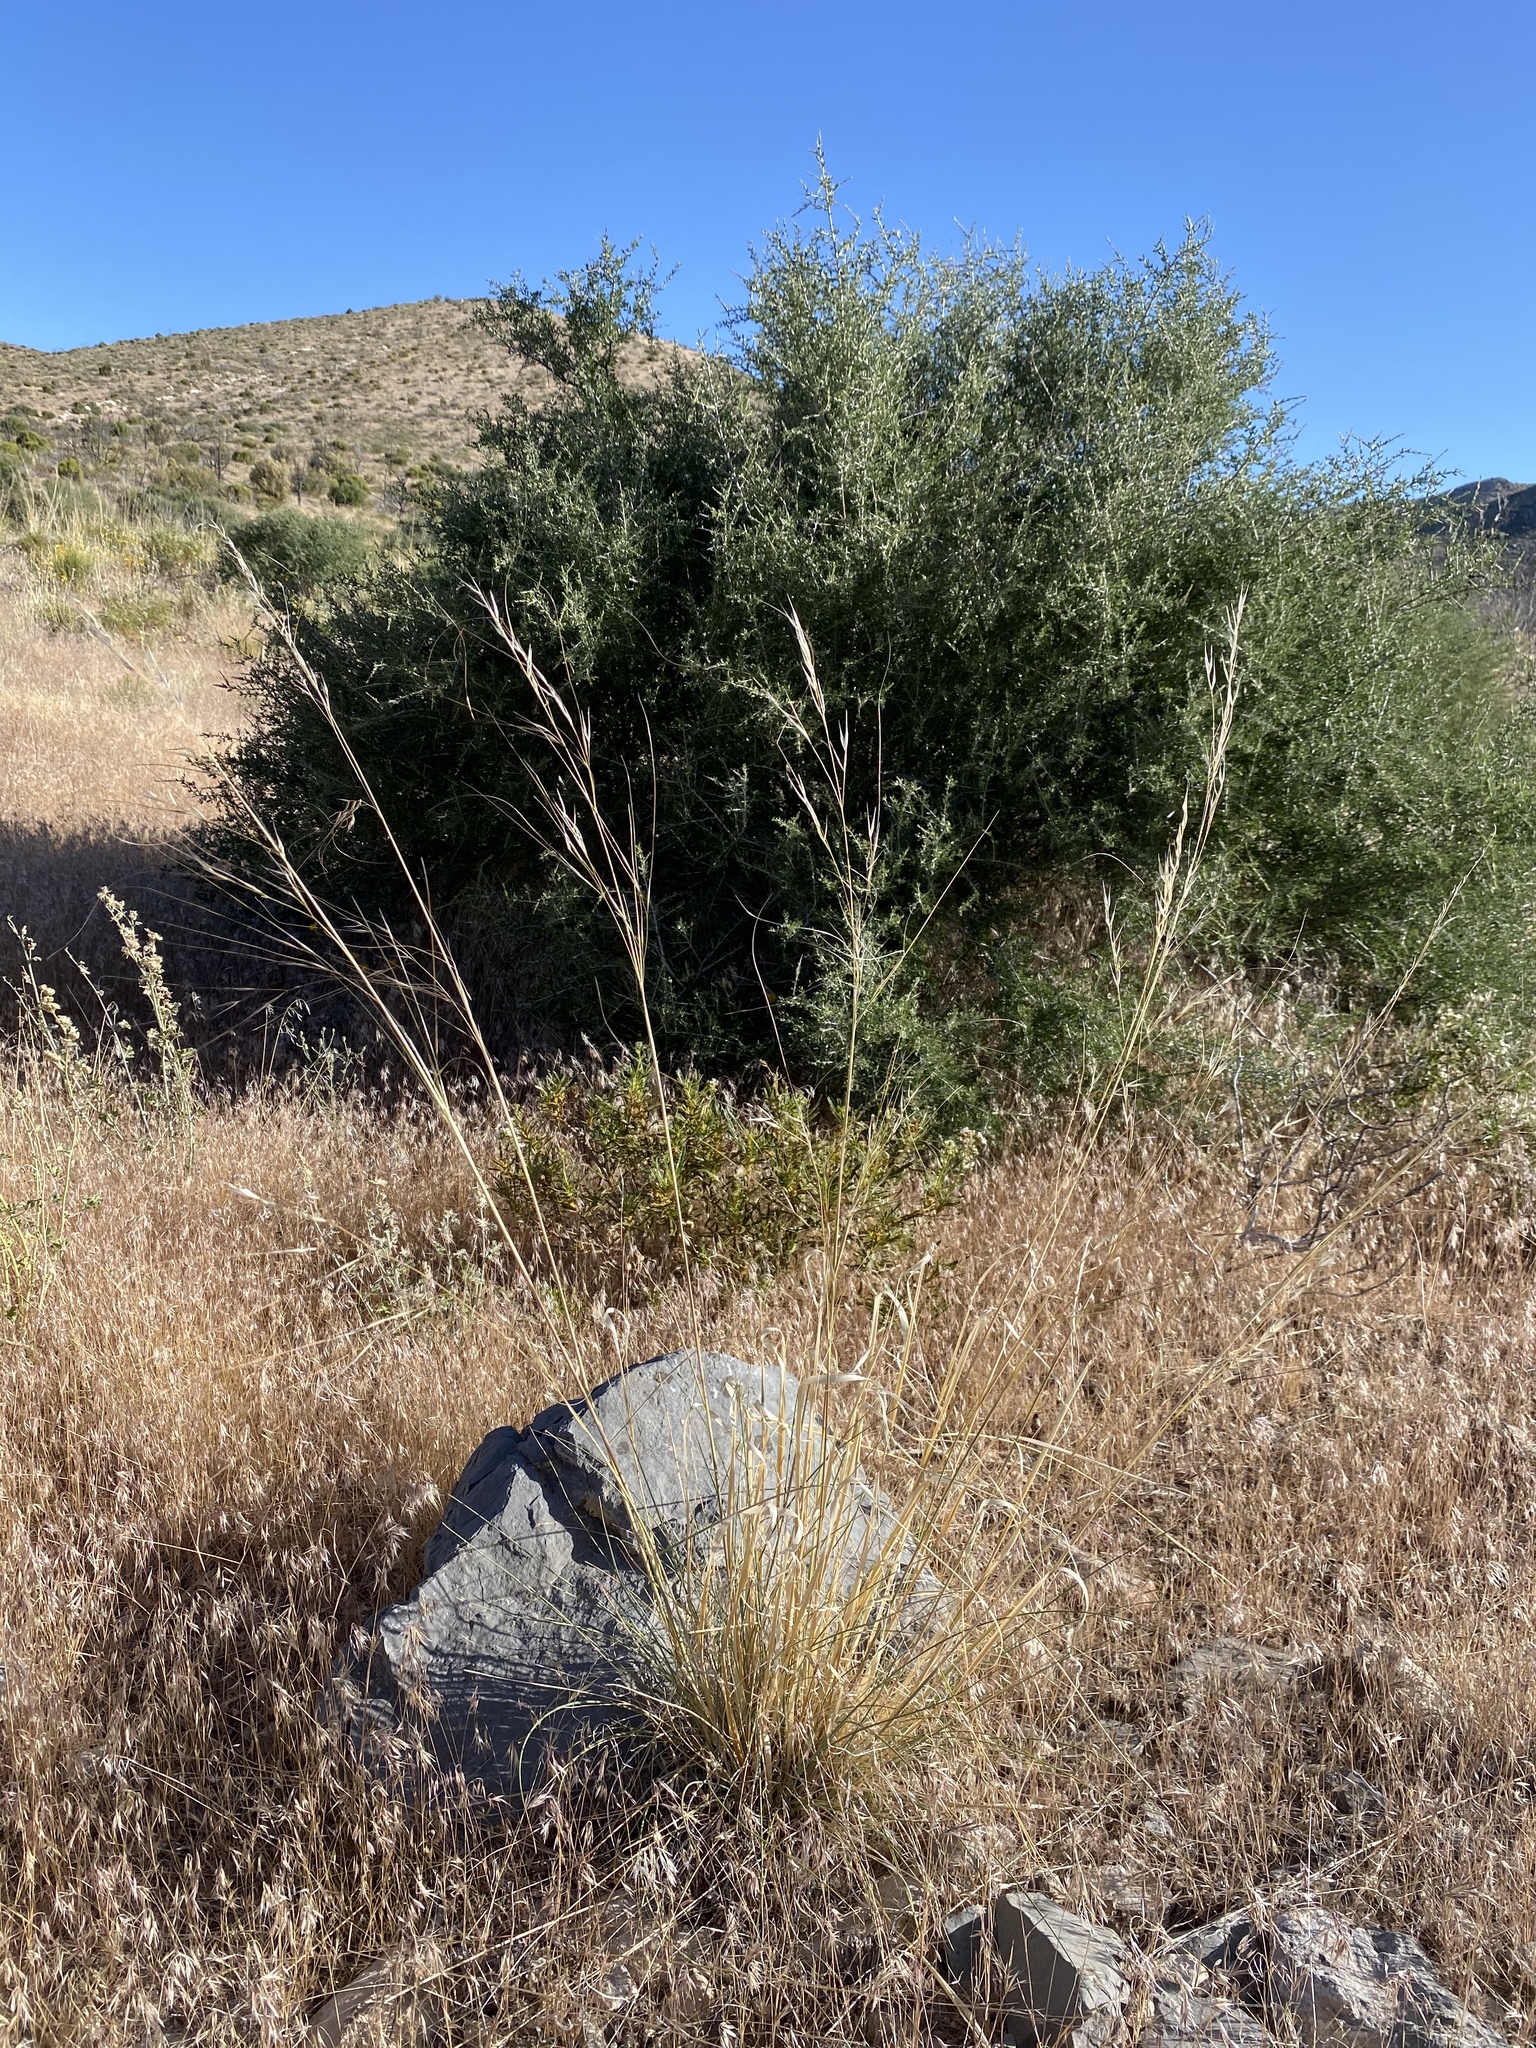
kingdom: Plantae
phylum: Tracheophyta
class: Liliopsida
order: Poales
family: Poaceae
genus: Hesperostipa
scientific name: Hesperostipa comata
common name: Needle-and-thread grass
